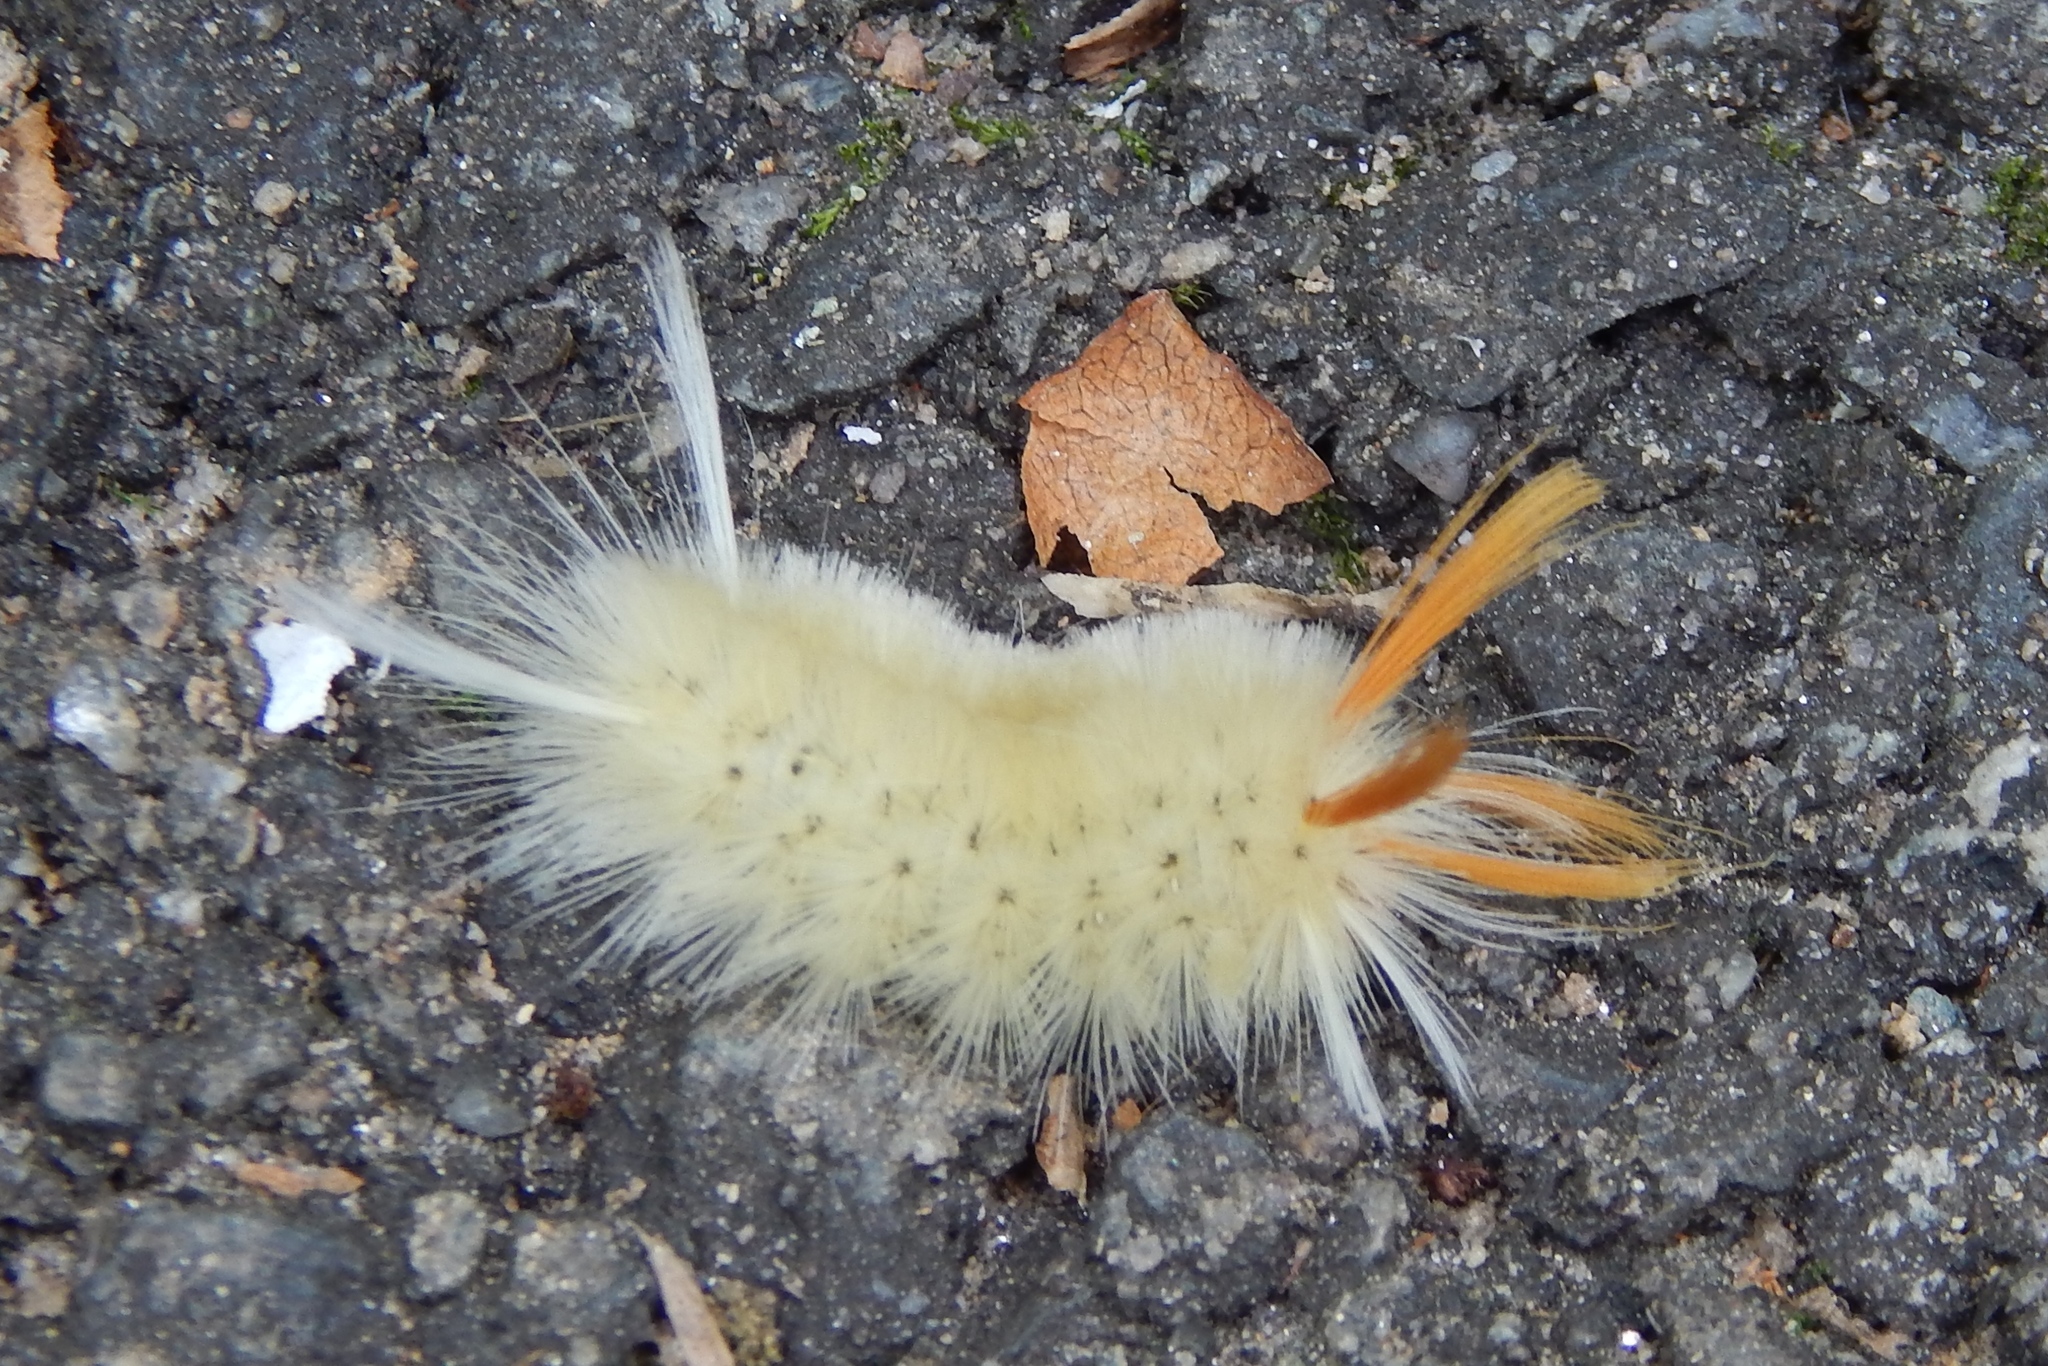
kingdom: Animalia
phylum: Arthropoda
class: Insecta
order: Lepidoptera
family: Erebidae
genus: Halysidota
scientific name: Halysidota harrisii
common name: Sycamore tussock moth
